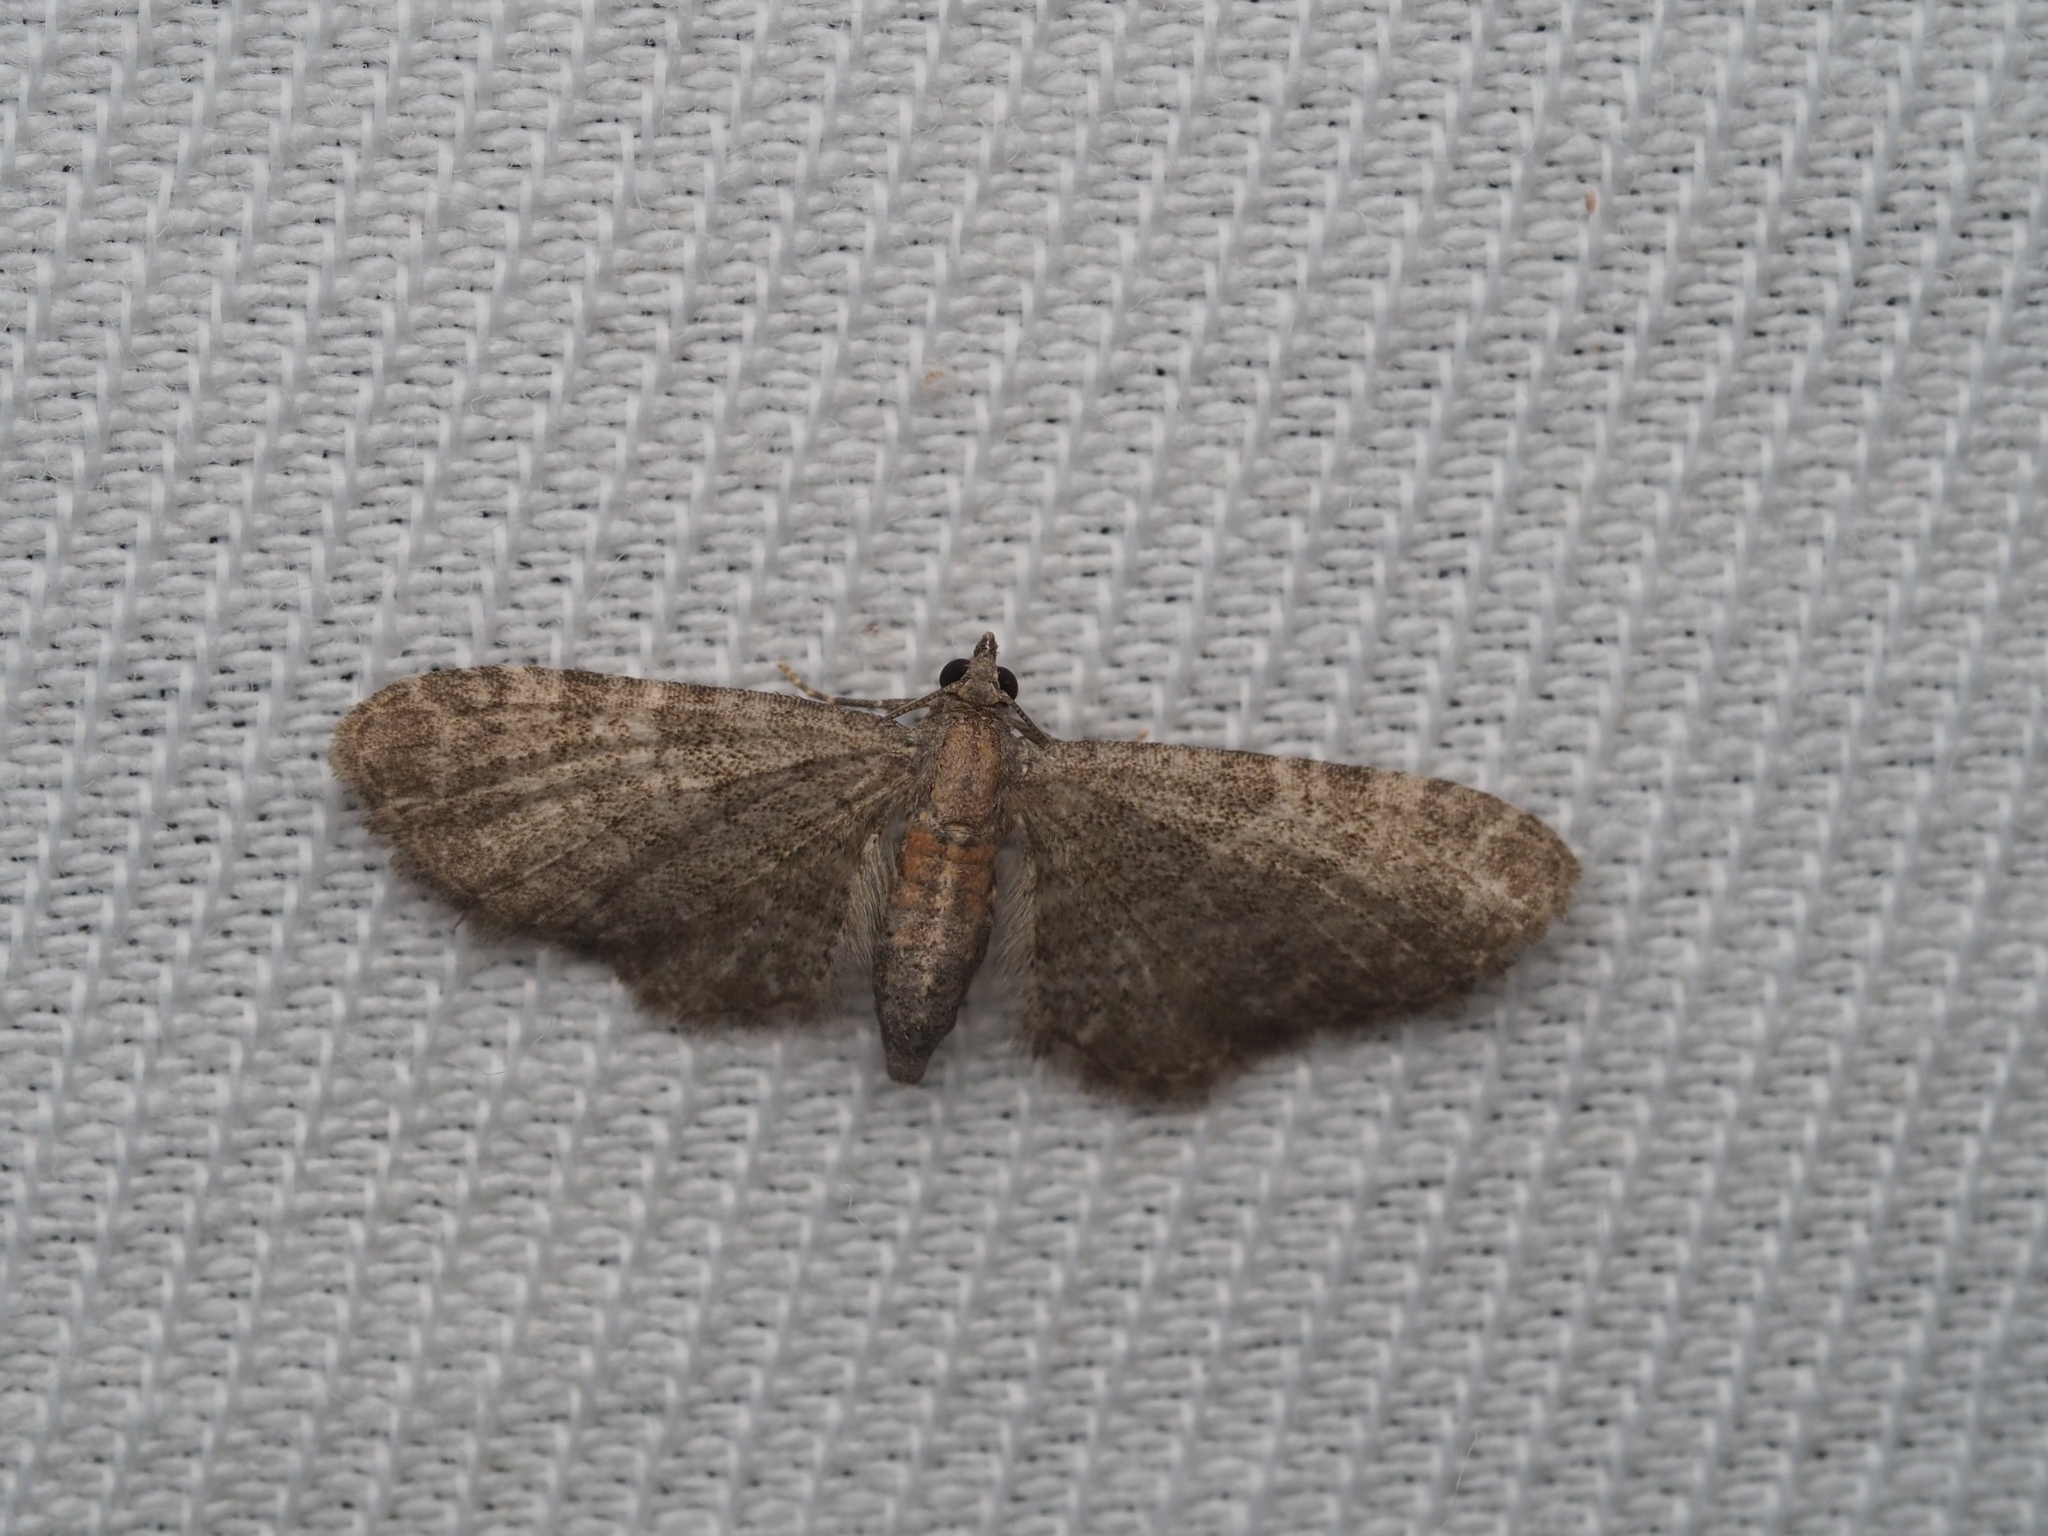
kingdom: Animalia
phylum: Arthropoda
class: Insecta
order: Lepidoptera
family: Geometridae
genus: Eupithecia
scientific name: Eupithecia haworthiata
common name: Haworth's pug
